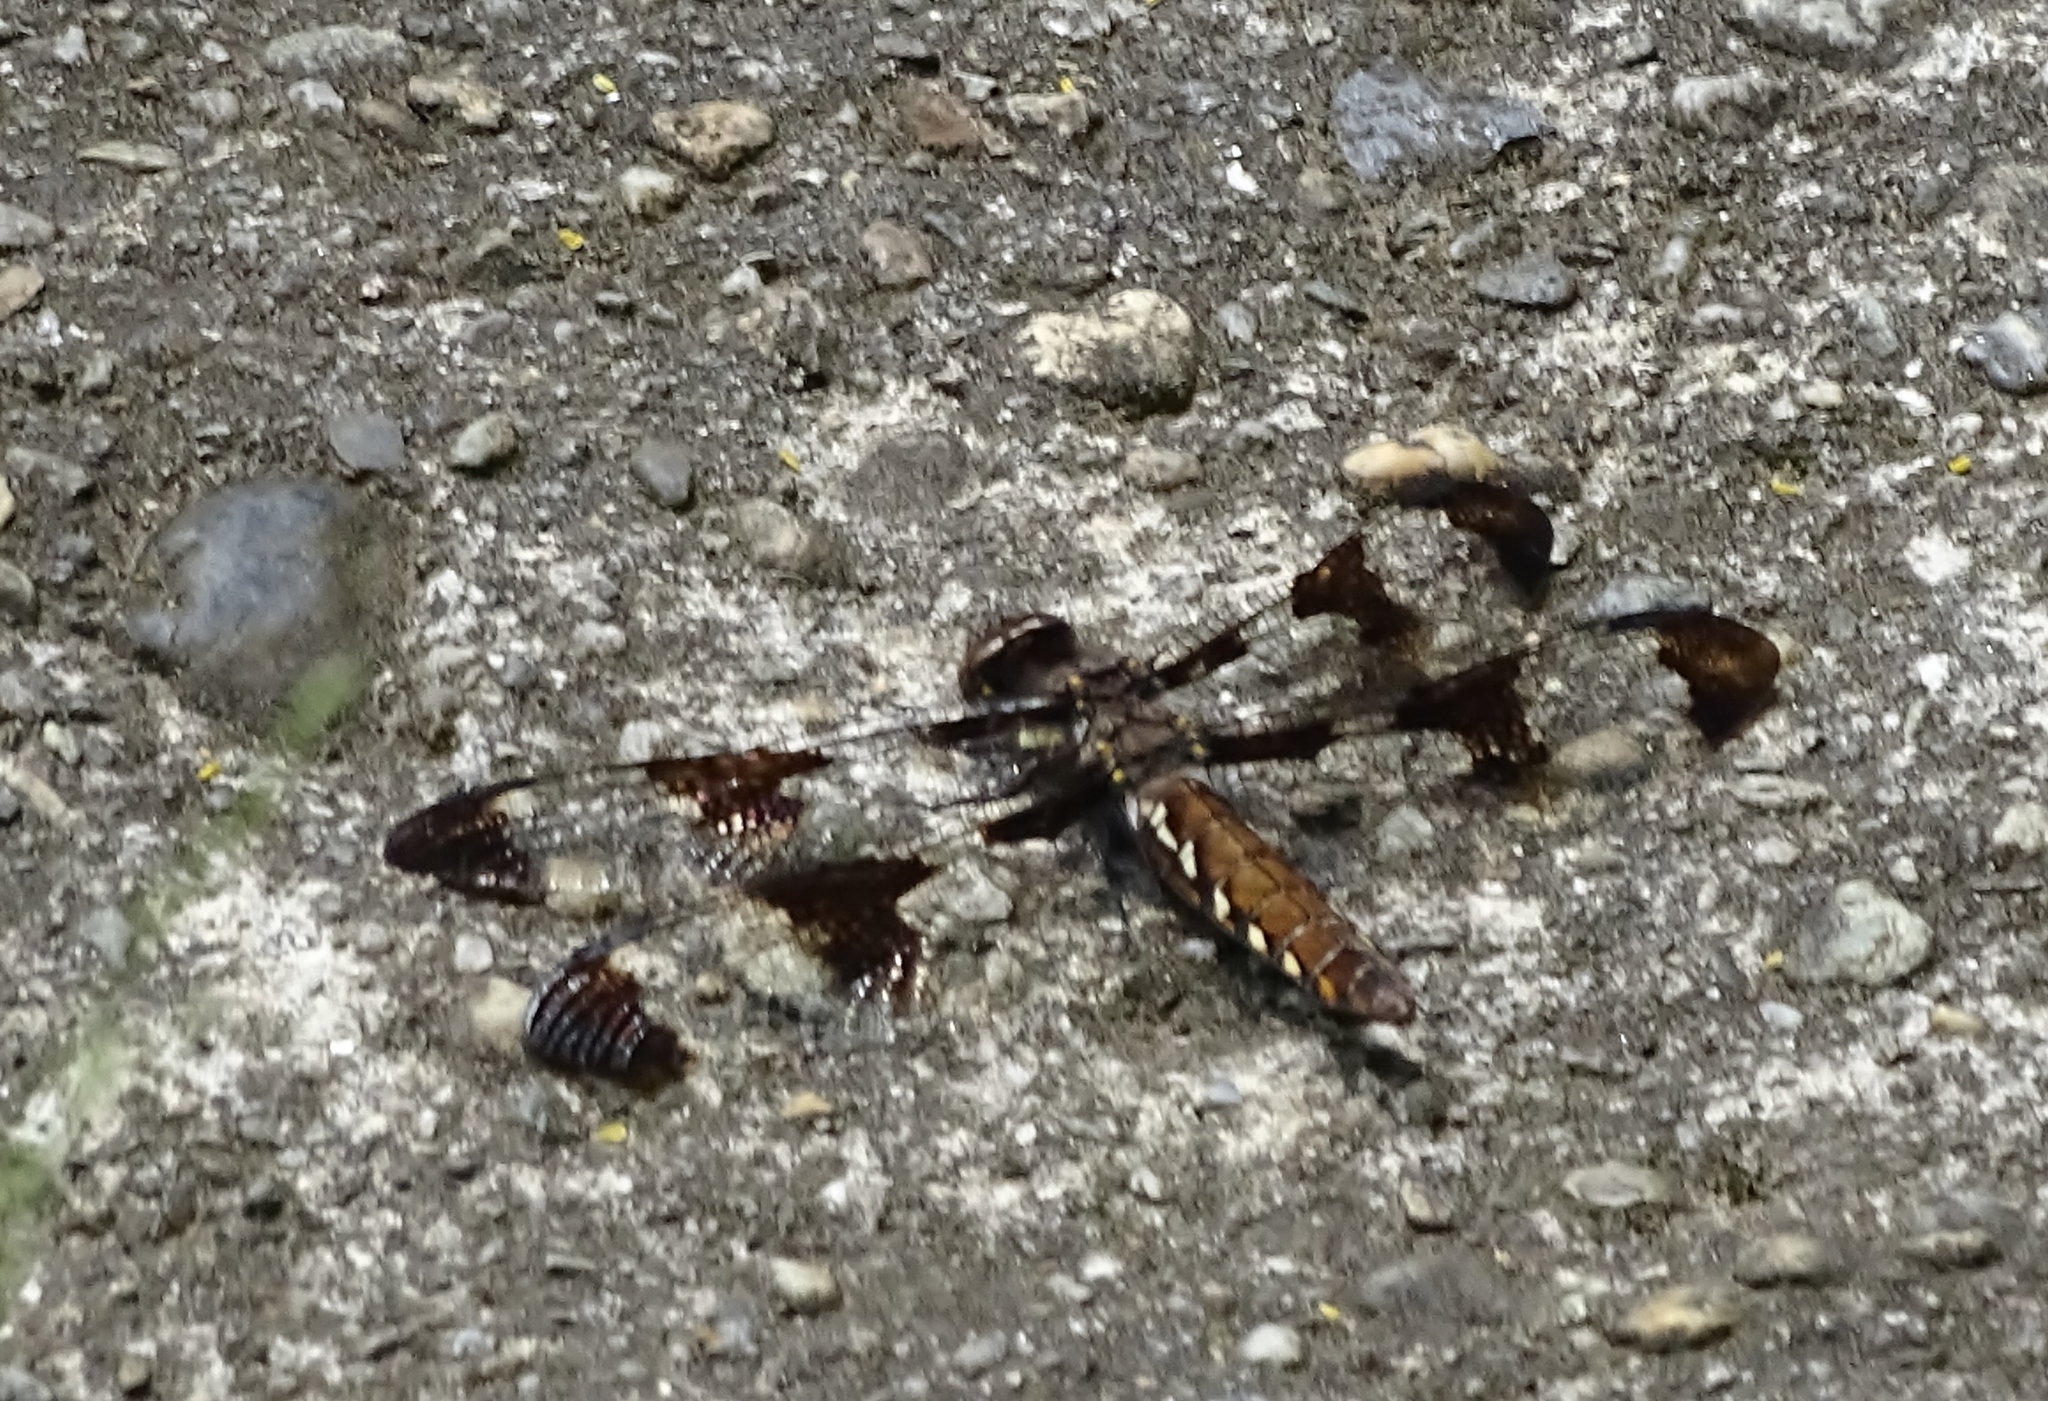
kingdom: Animalia
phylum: Arthropoda
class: Insecta
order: Odonata
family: Libellulidae
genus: Plathemis
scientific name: Plathemis lydia
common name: Common whitetail
